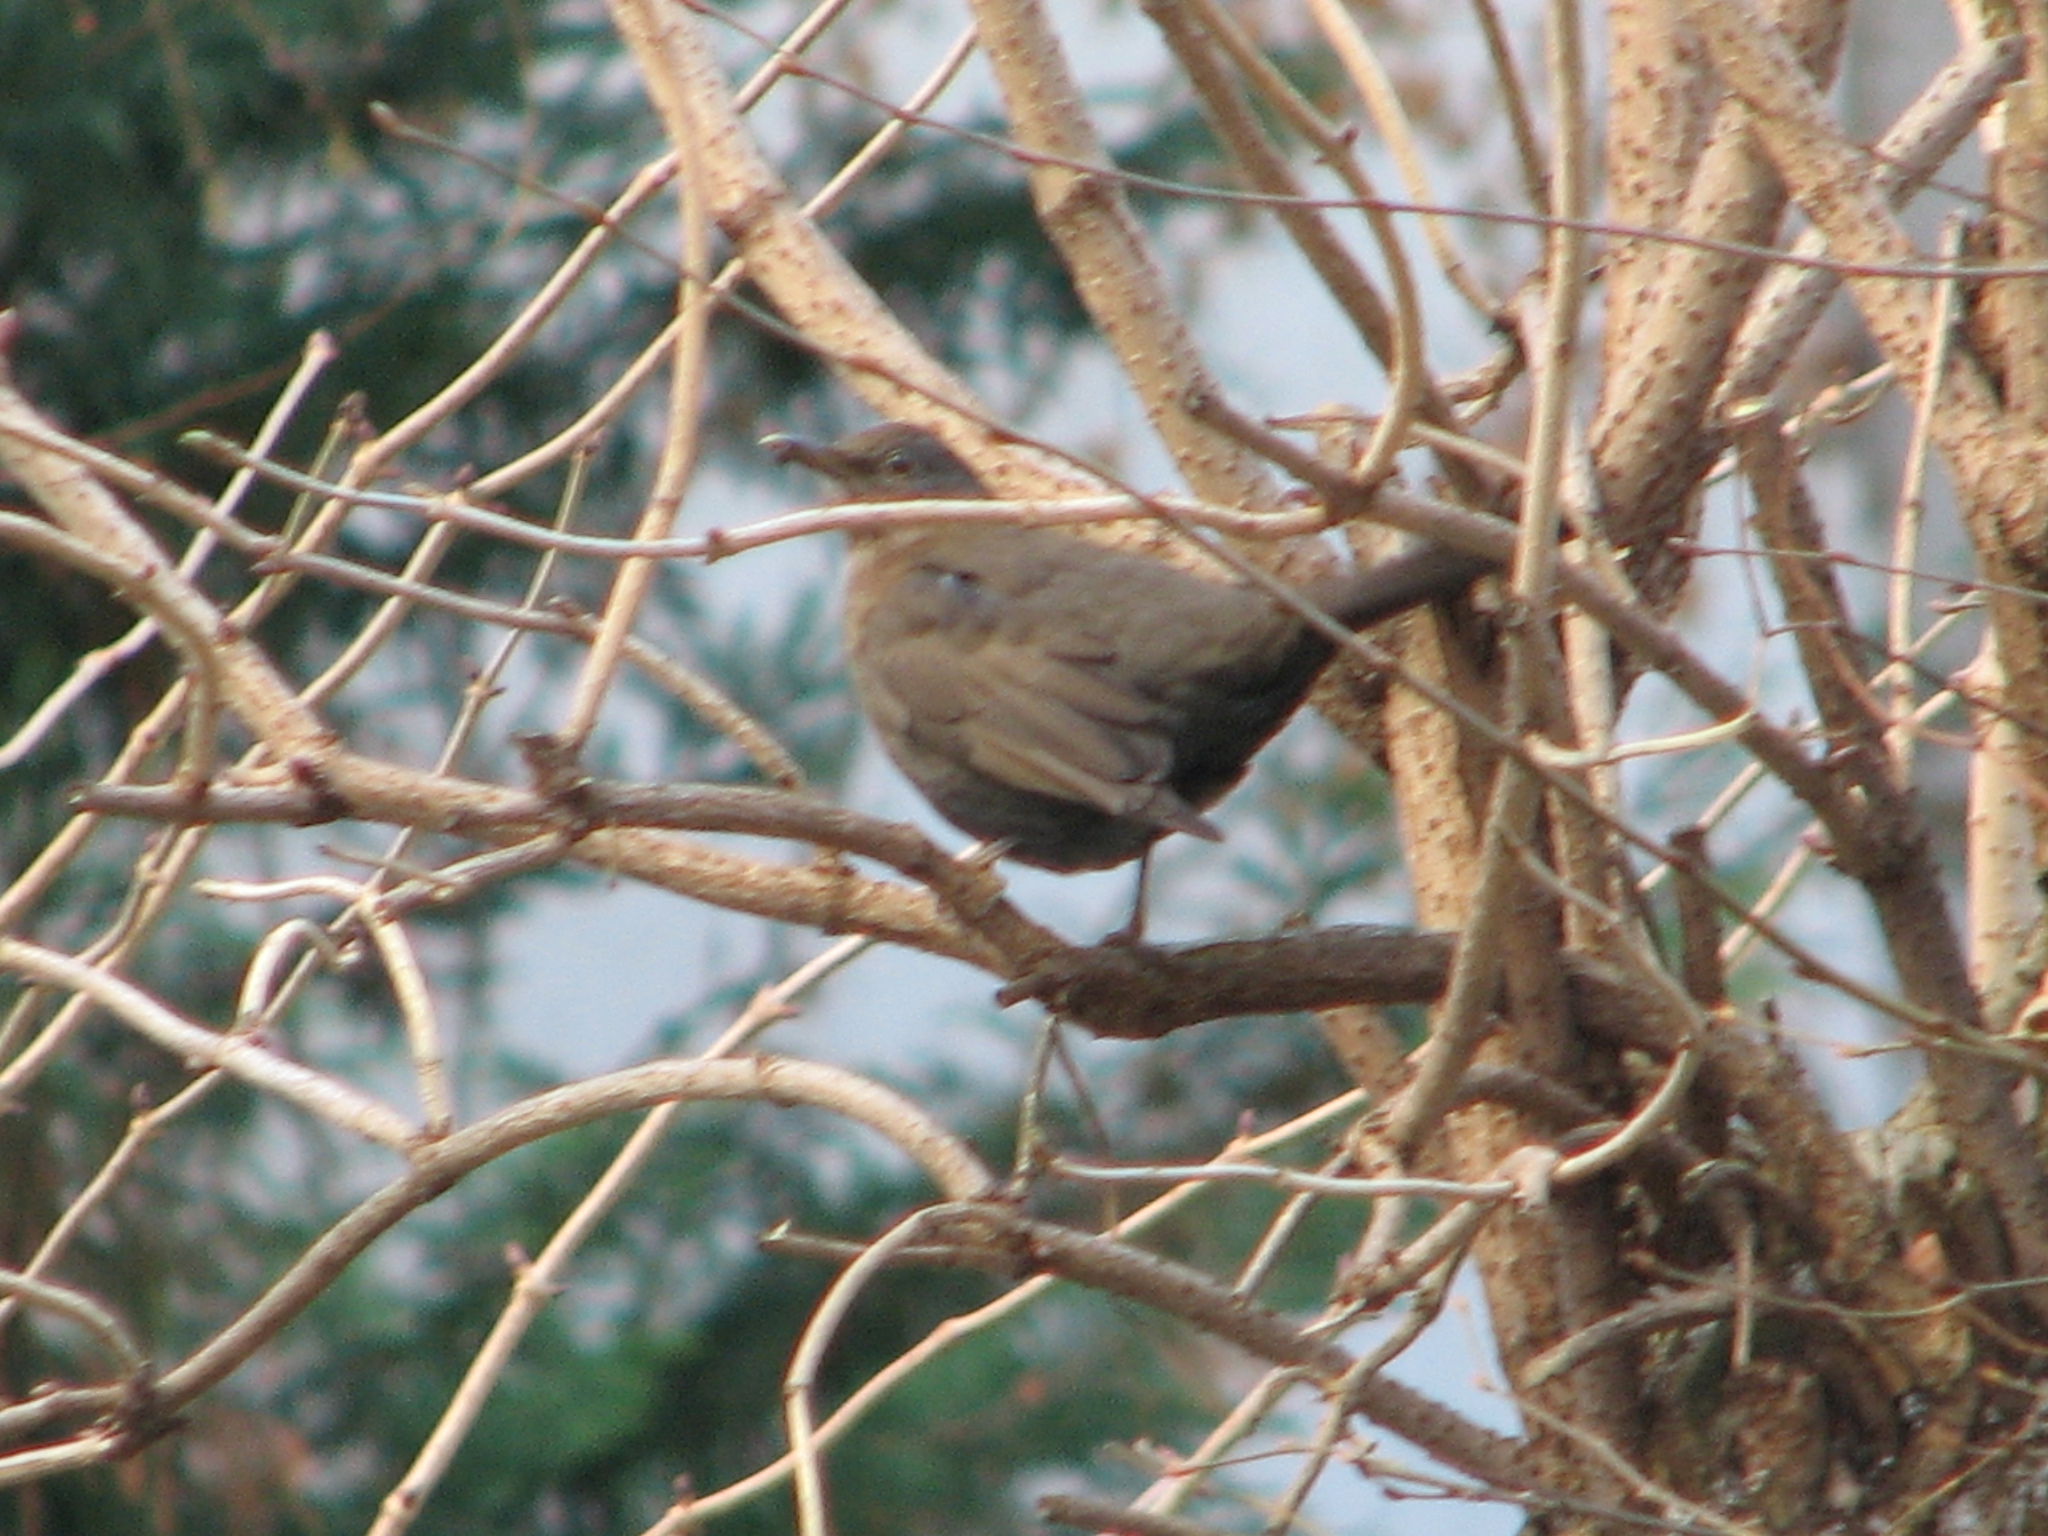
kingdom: Animalia
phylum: Chordata
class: Aves
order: Passeriformes
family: Turdidae
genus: Turdus
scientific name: Turdus merula
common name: Common blackbird
